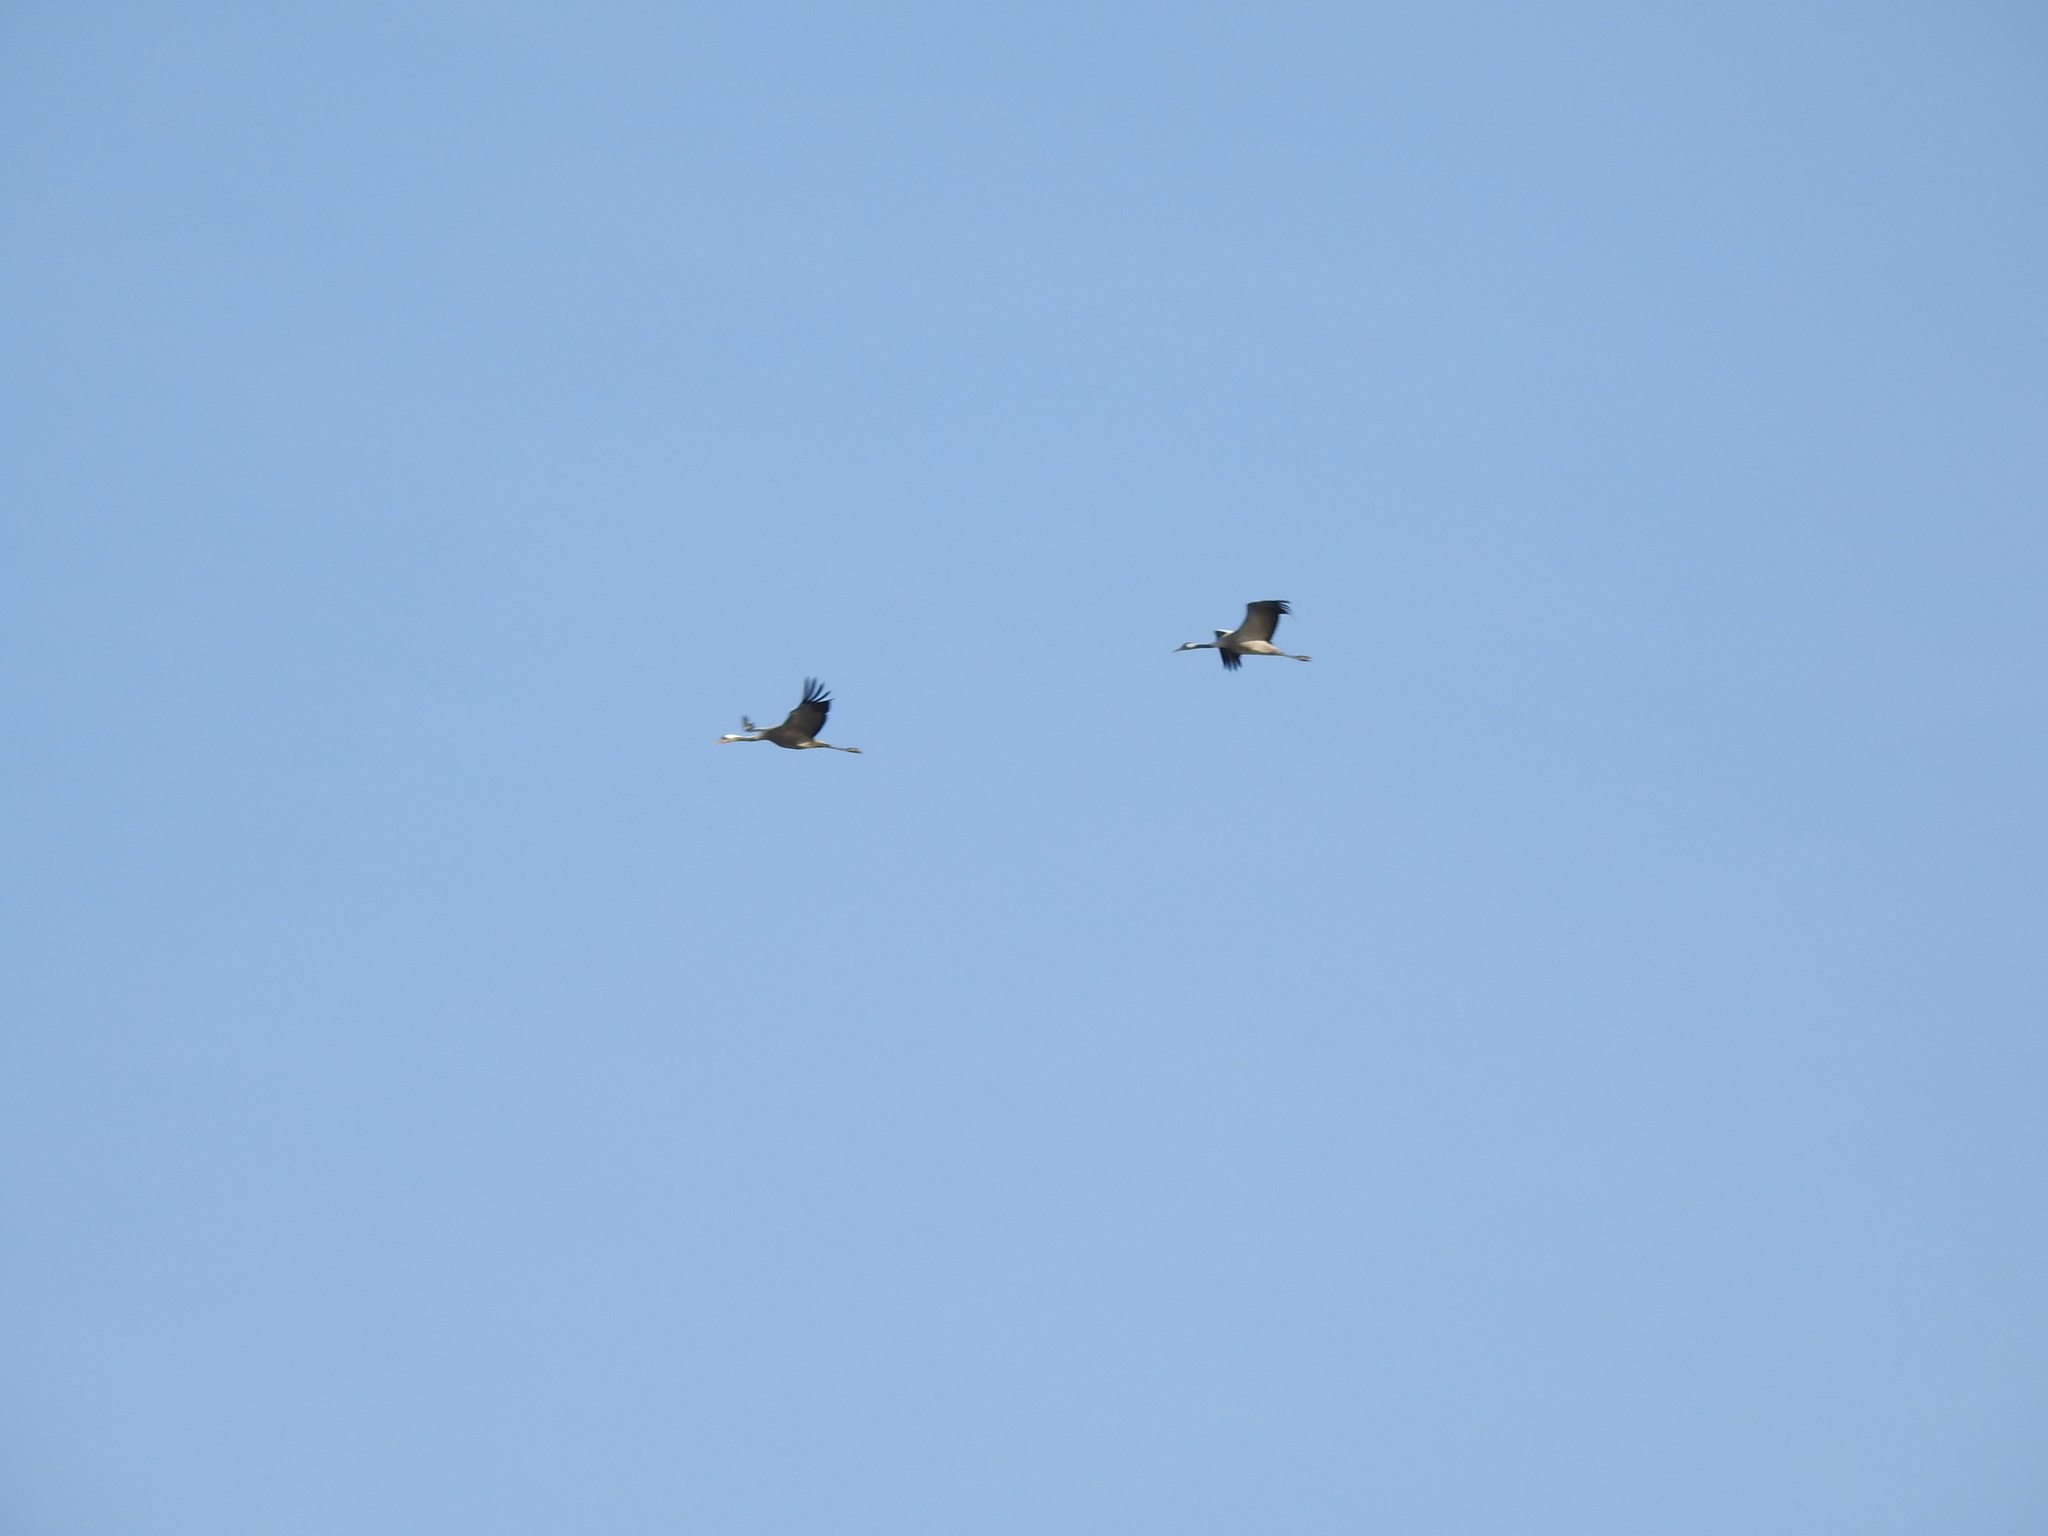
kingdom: Animalia
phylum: Chordata
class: Aves
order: Gruiformes
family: Gruidae
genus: Grus
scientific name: Grus grus
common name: Common crane
